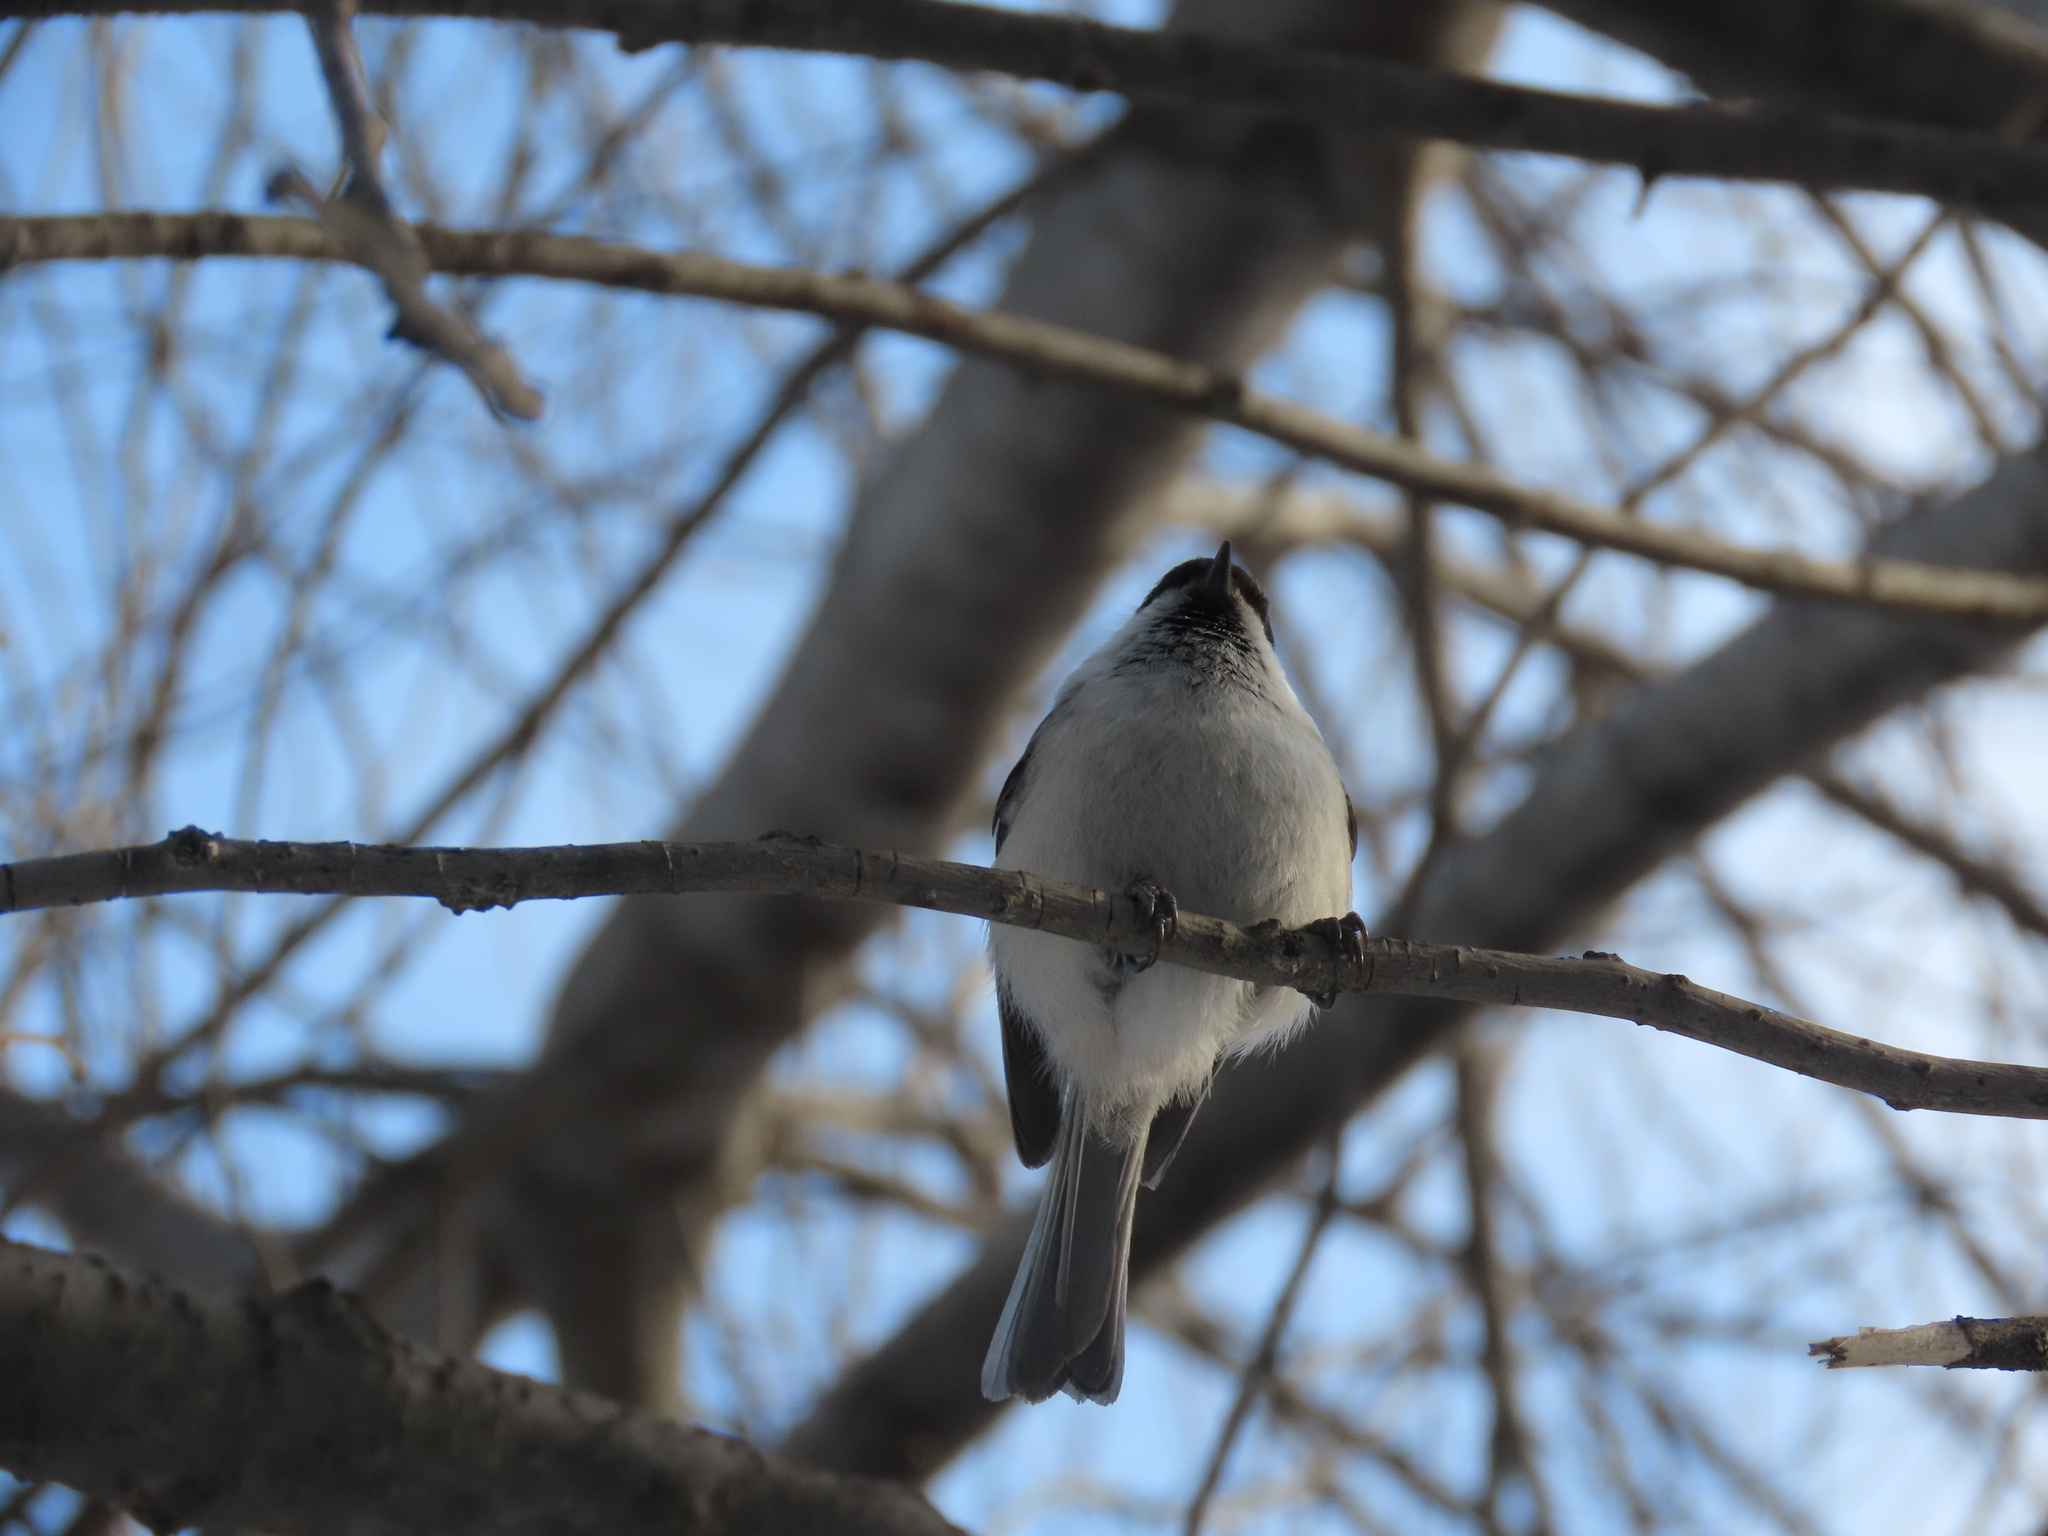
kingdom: Animalia
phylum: Chordata
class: Aves
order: Passeriformes
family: Paridae
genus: Poecile
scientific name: Poecile montanus
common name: Willow tit
